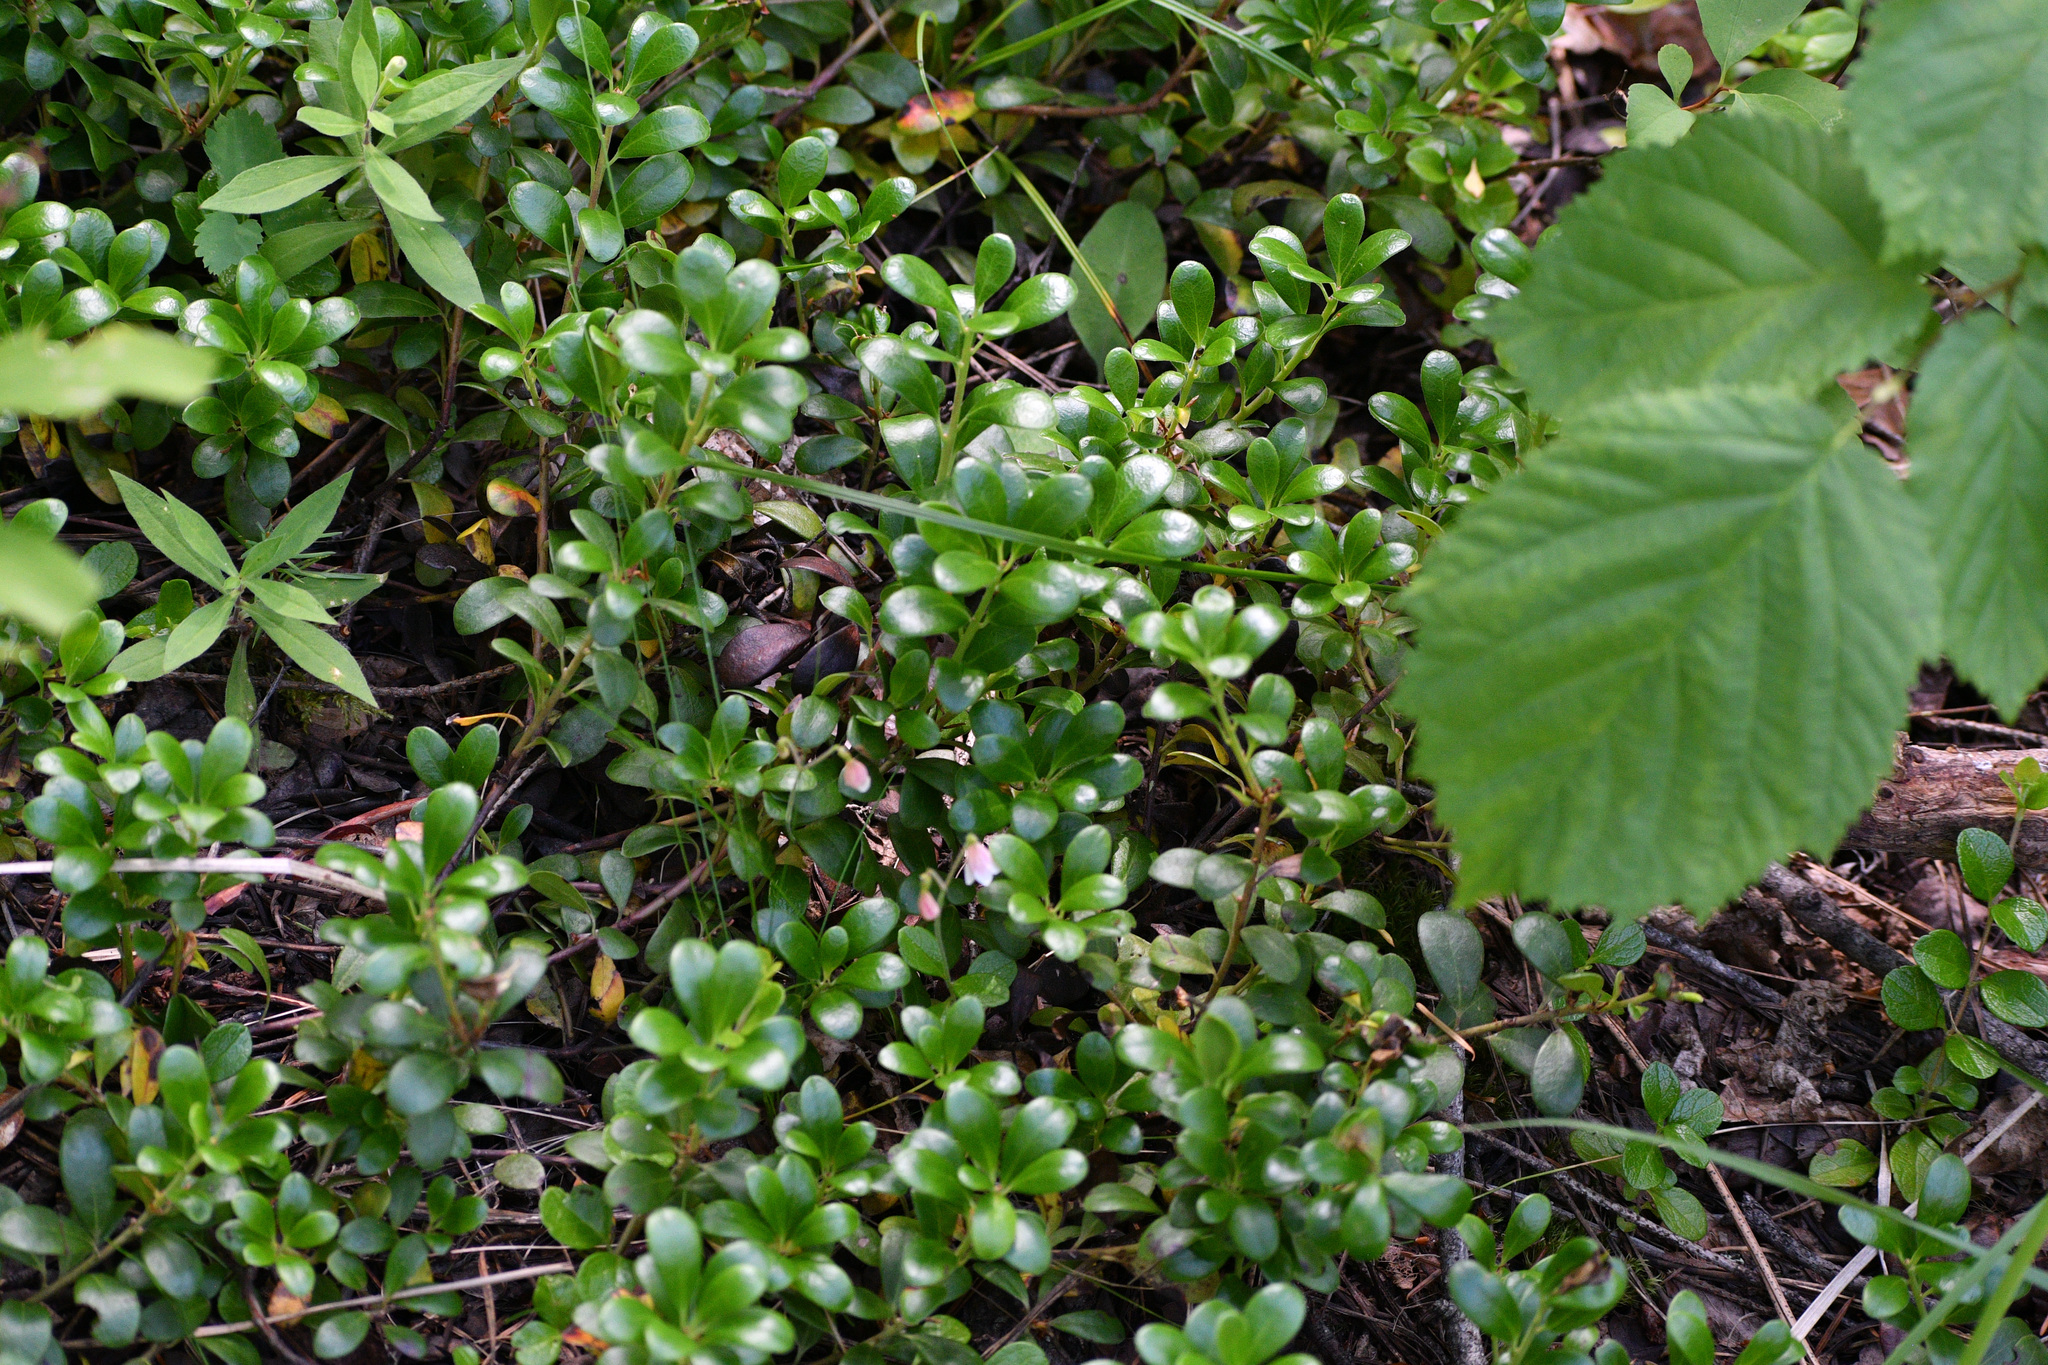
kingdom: Plantae
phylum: Tracheophyta
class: Magnoliopsida
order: Ericales
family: Ericaceae
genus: Arctostaphylos
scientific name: Arctostaphylos uva-ursi
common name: Bearberry
